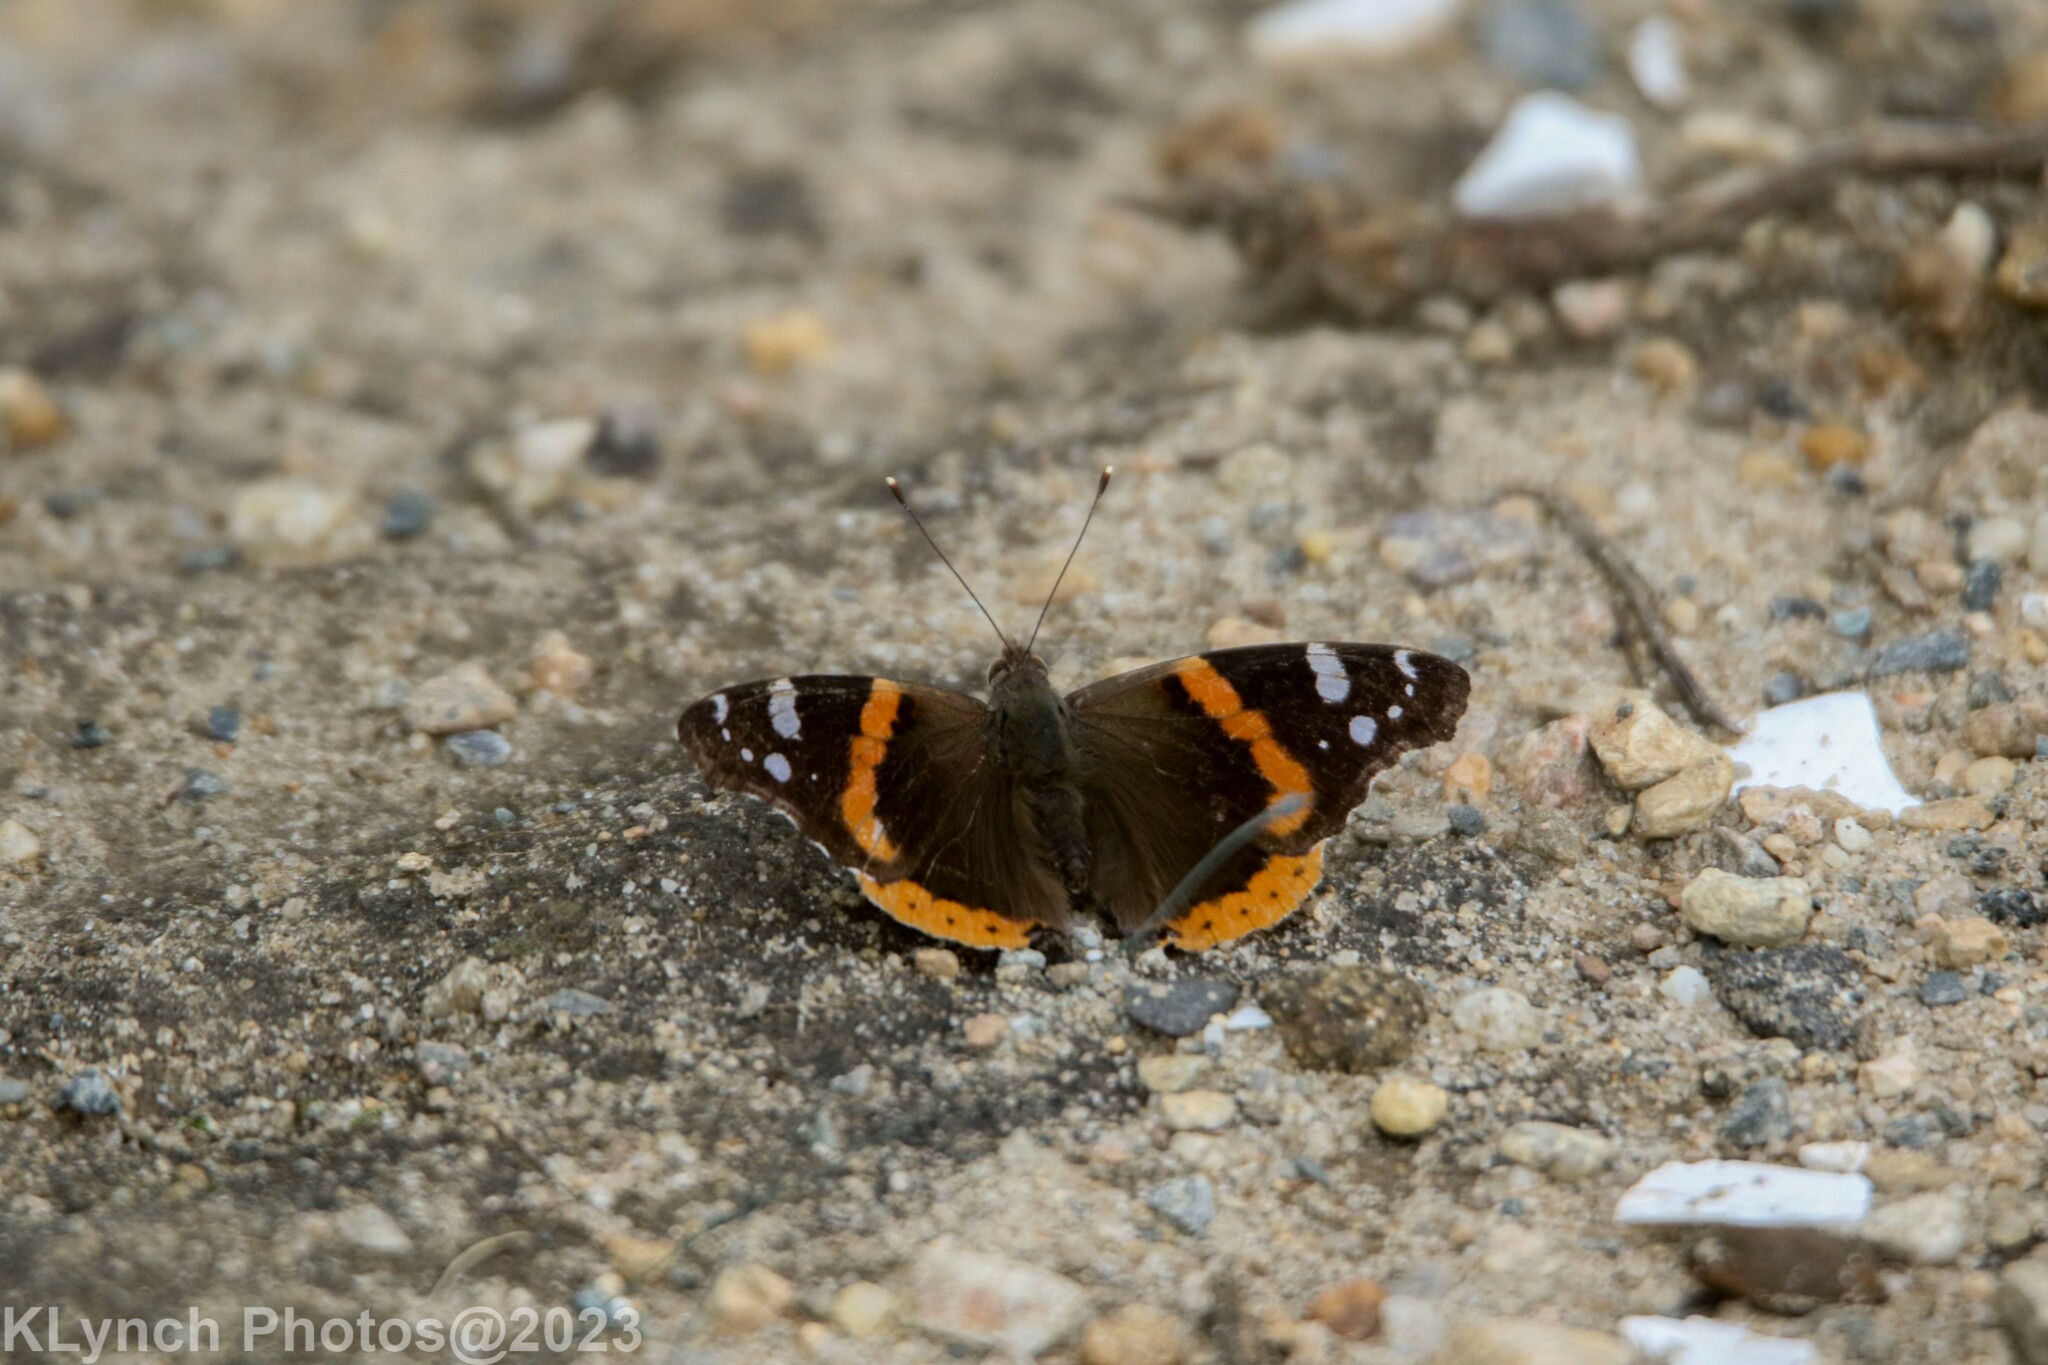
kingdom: Animalia
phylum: Arthropoda
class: Insecta
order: Lepidoptera
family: Nymphalidae
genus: Vanessa
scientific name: Vanessa atalanta
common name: Red admiral
